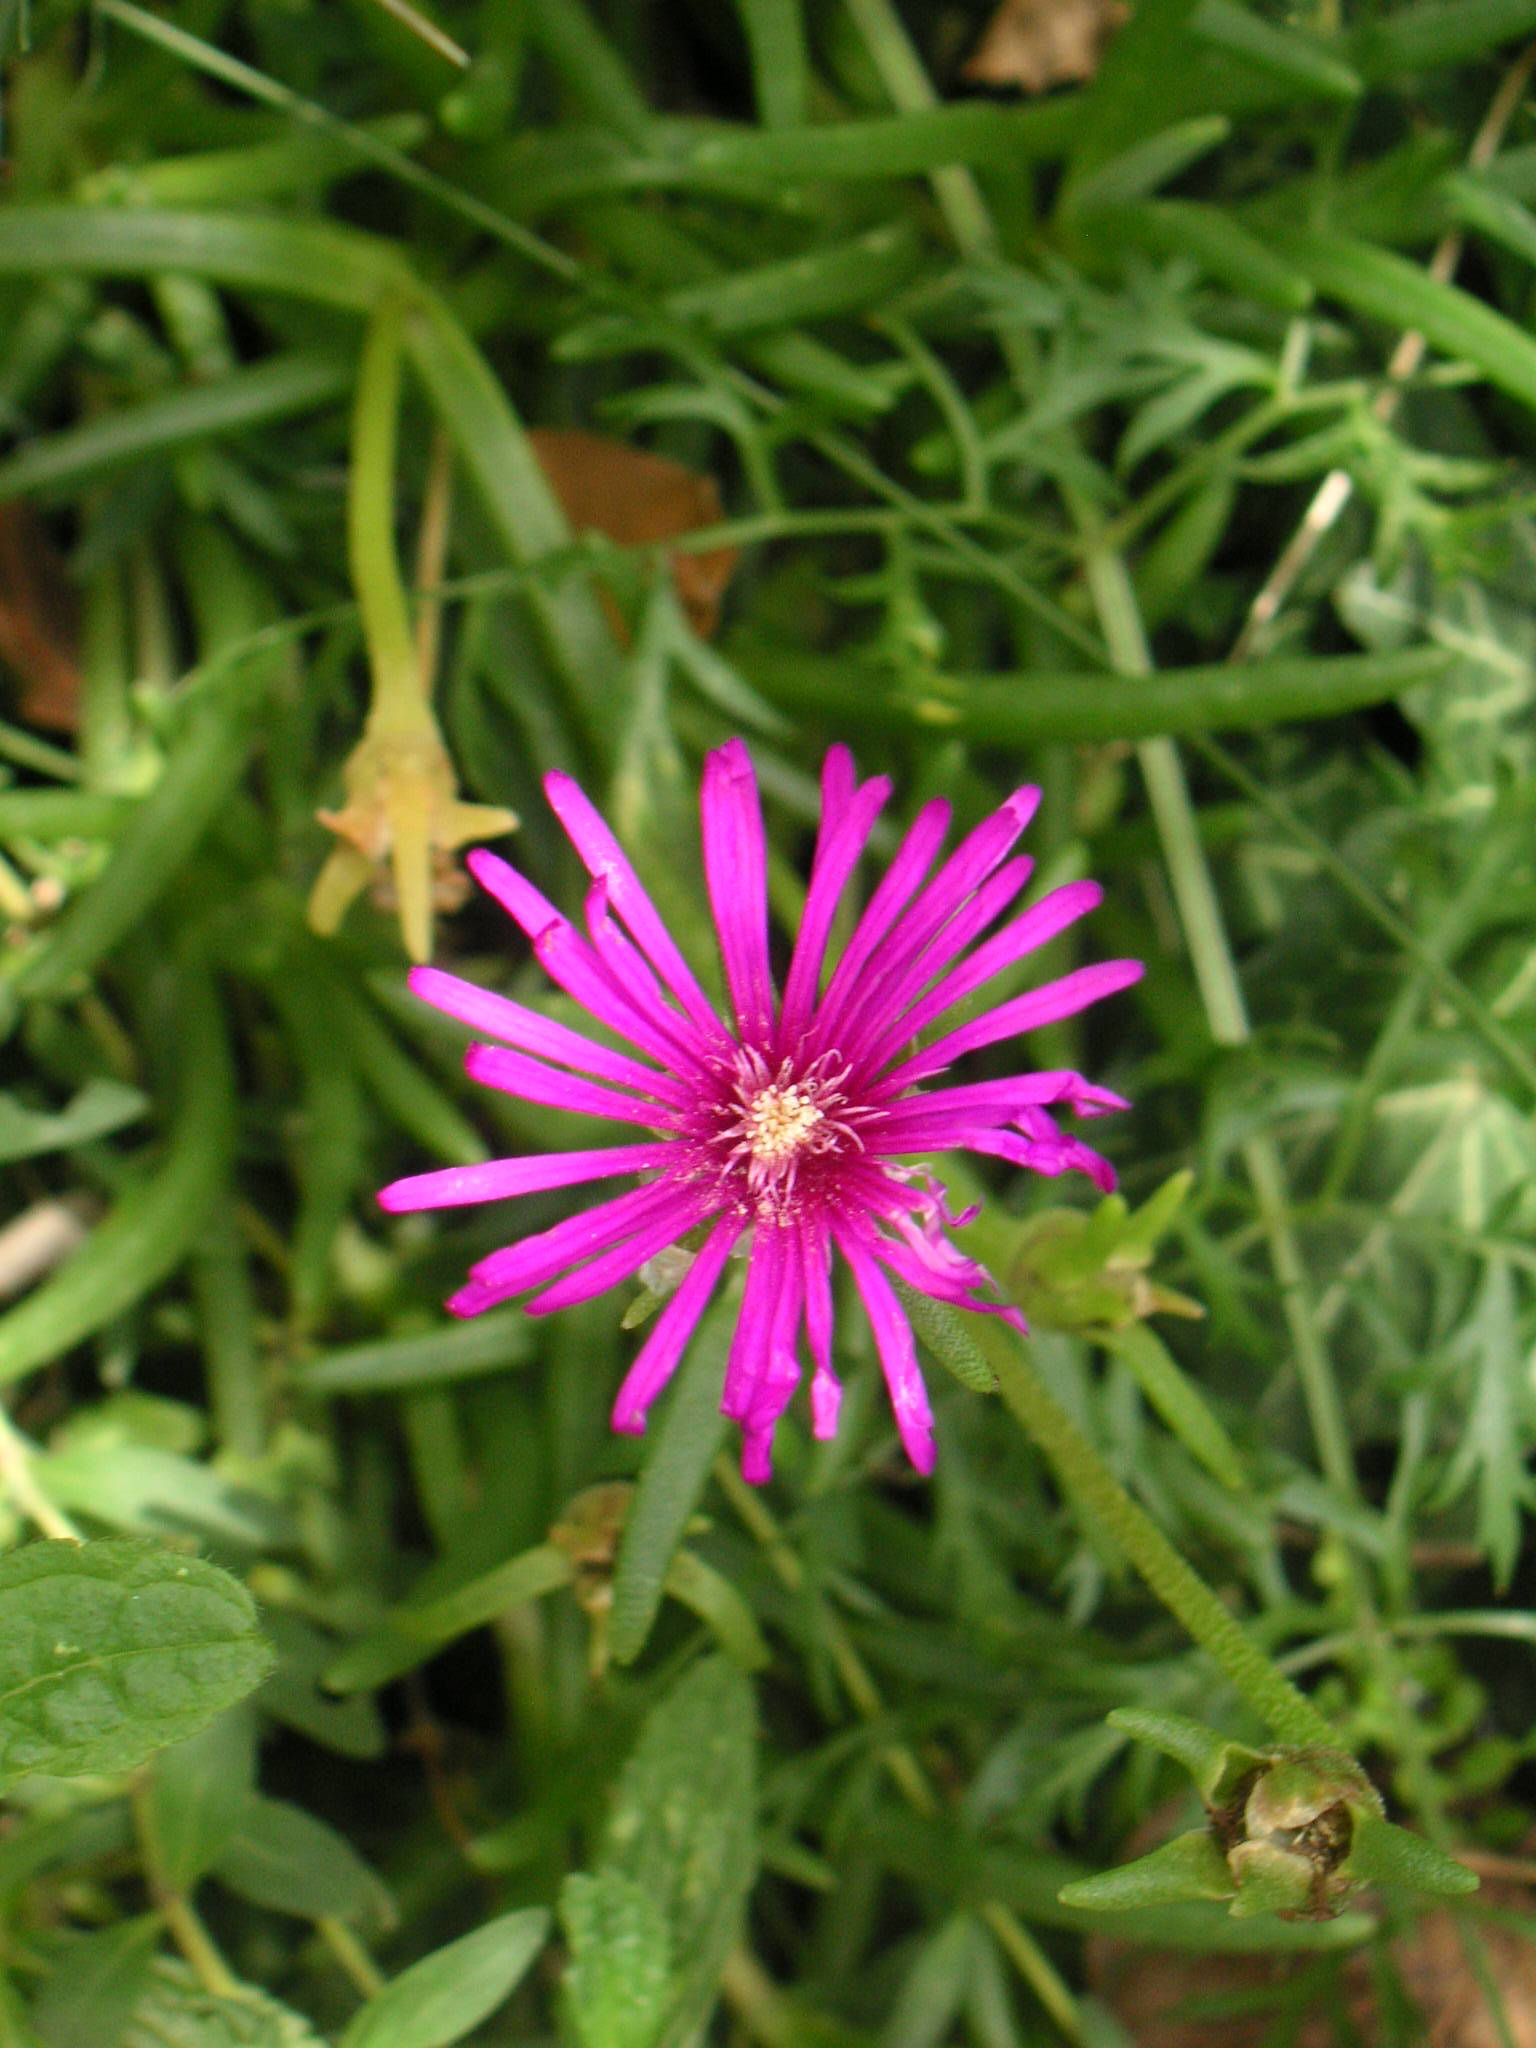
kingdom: Plantae
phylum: Tracheophyta
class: Magnoliopsida
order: Caryophyllales
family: Aizoaceae
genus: Delosperma
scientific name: Delosperma cooperi
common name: Hardy iceplant
